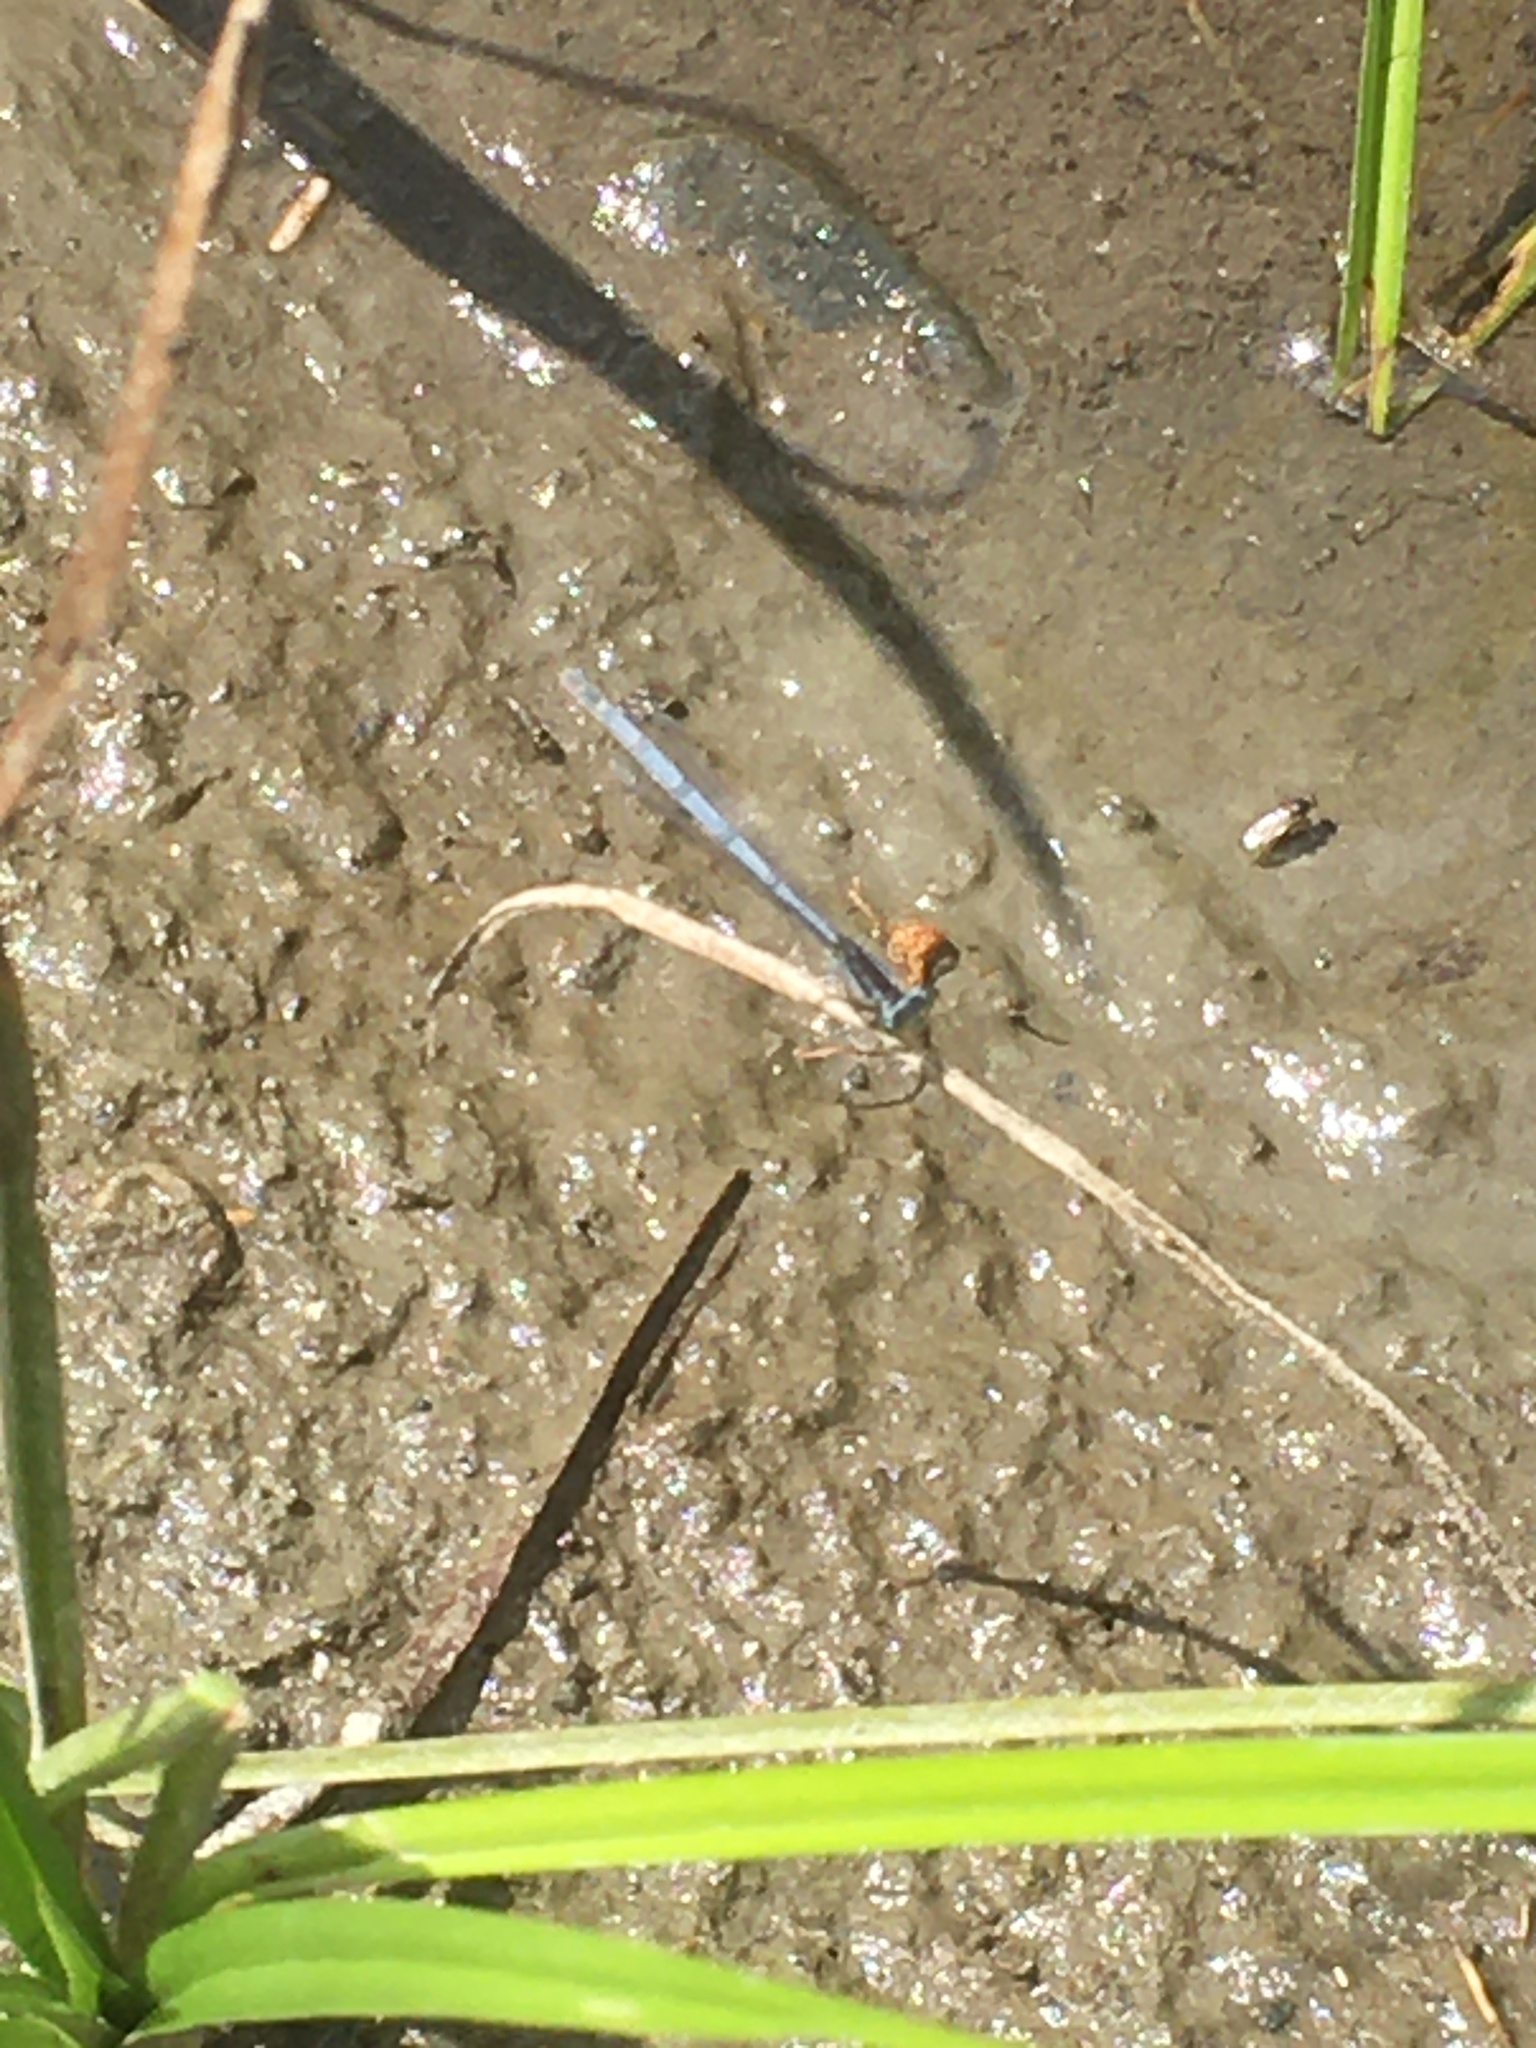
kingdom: Animalia
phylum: Arthropoda
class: Insecta
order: Odonata
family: Coenagrionidae
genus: Ischnura
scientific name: Ischnura verticalis
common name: Eastern forktail
